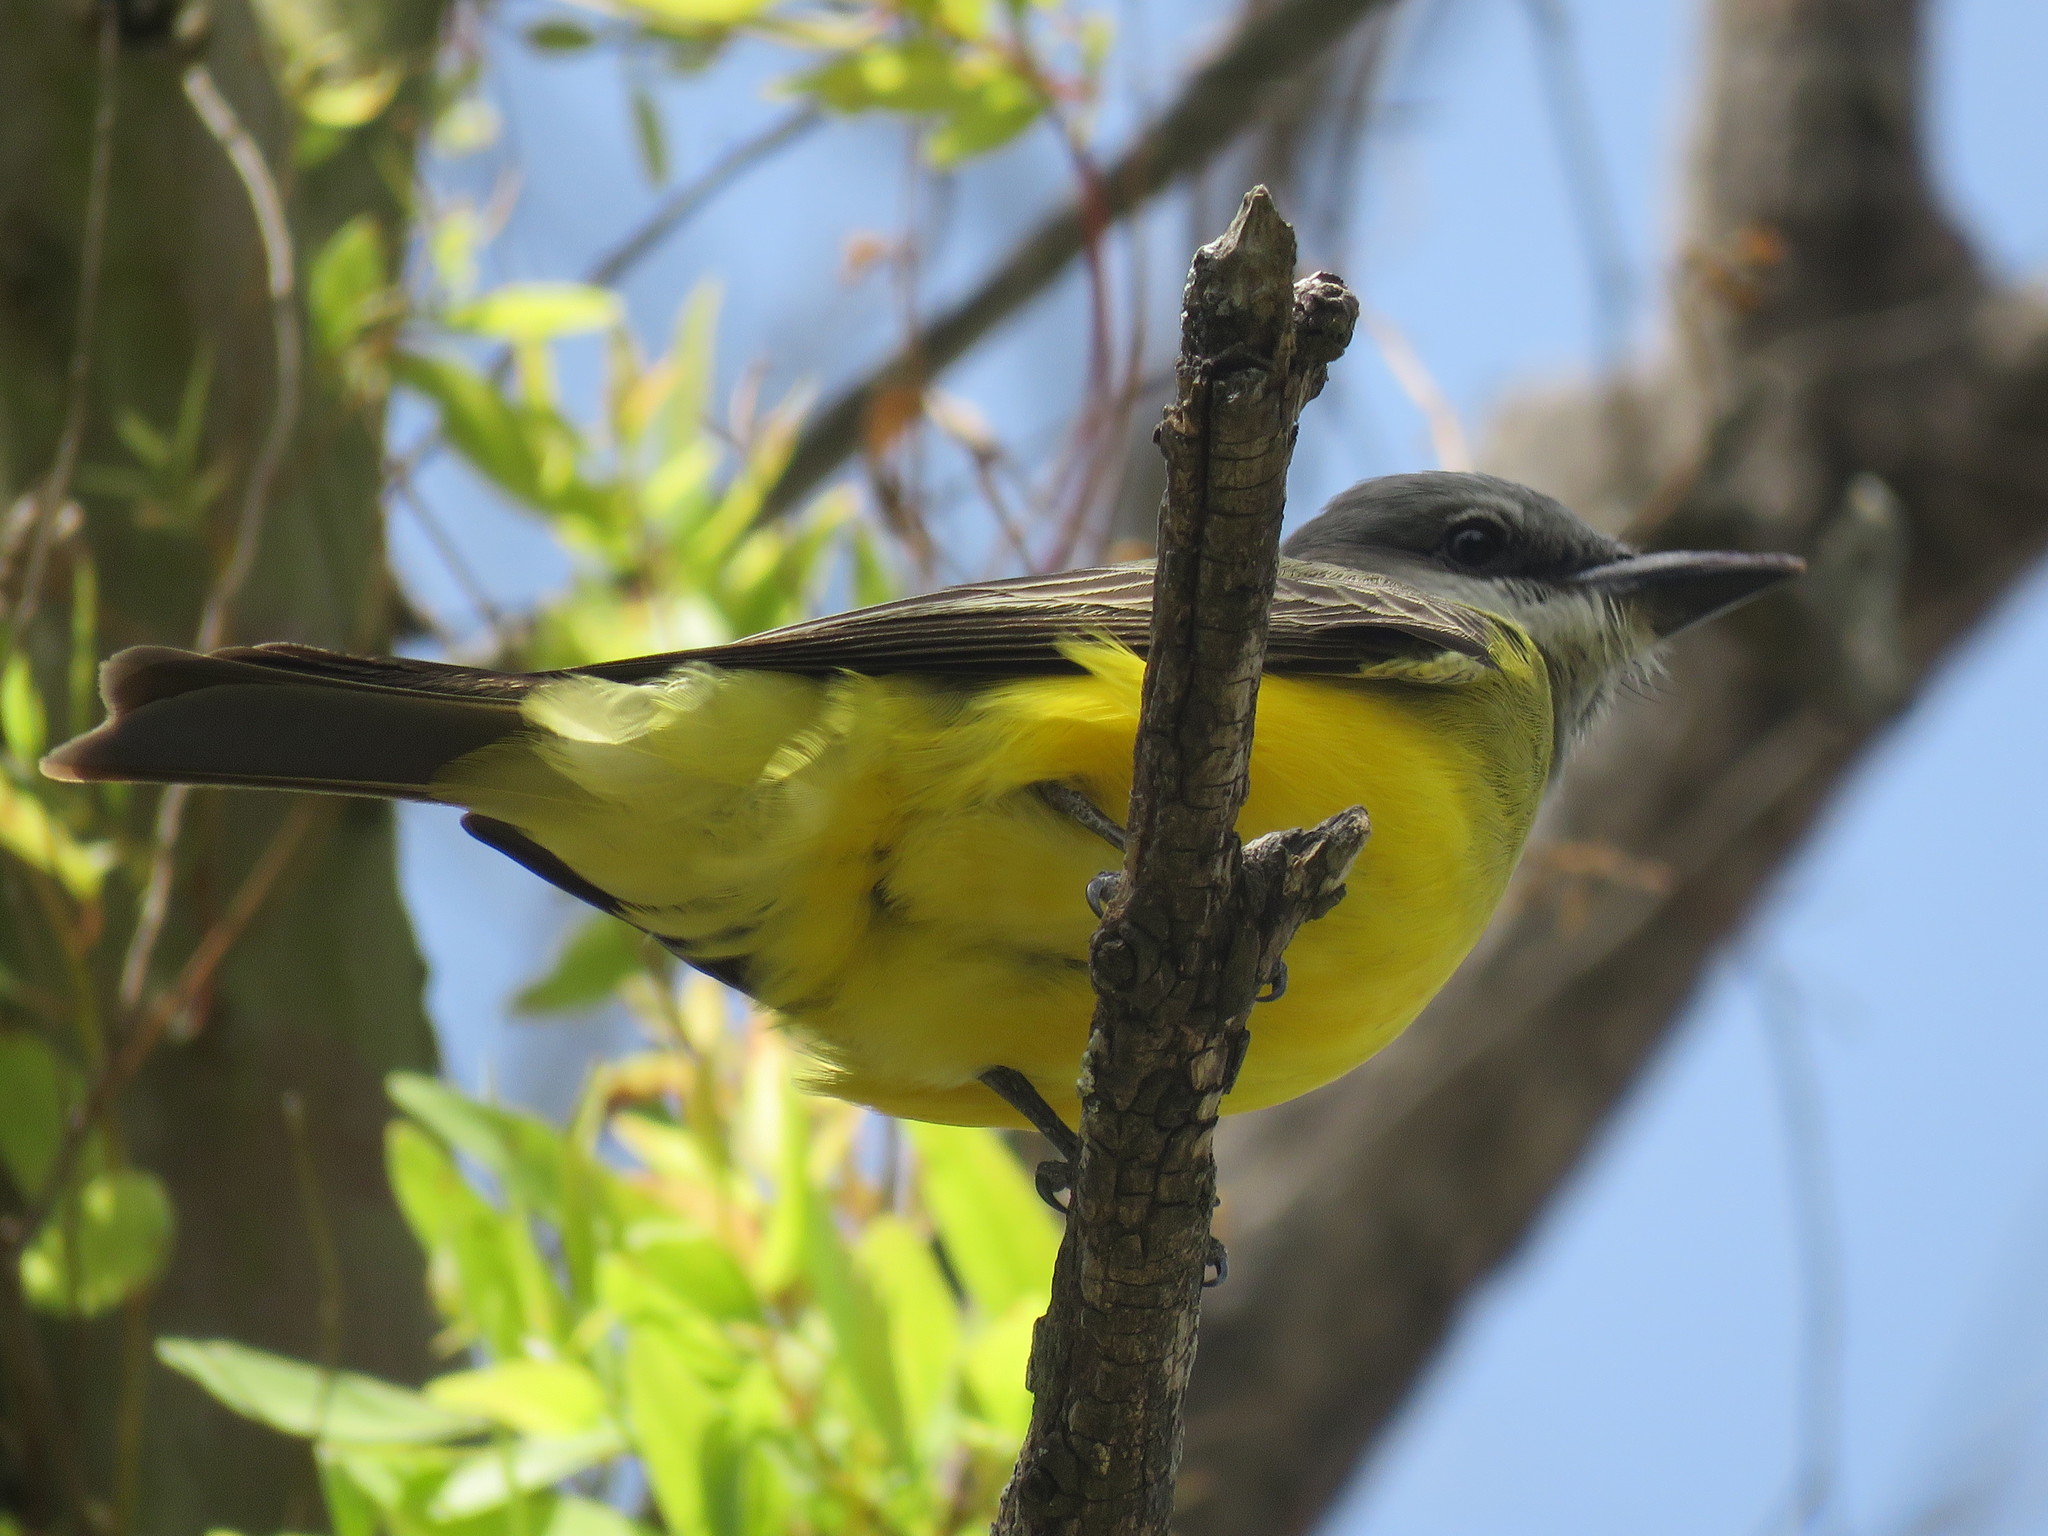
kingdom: Animalia
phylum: Chordata
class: Aves
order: Passeriformes
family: Tyrannidae
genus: Tyrannus
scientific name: Tyrannus melancholicus
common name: Tropical kingbird
